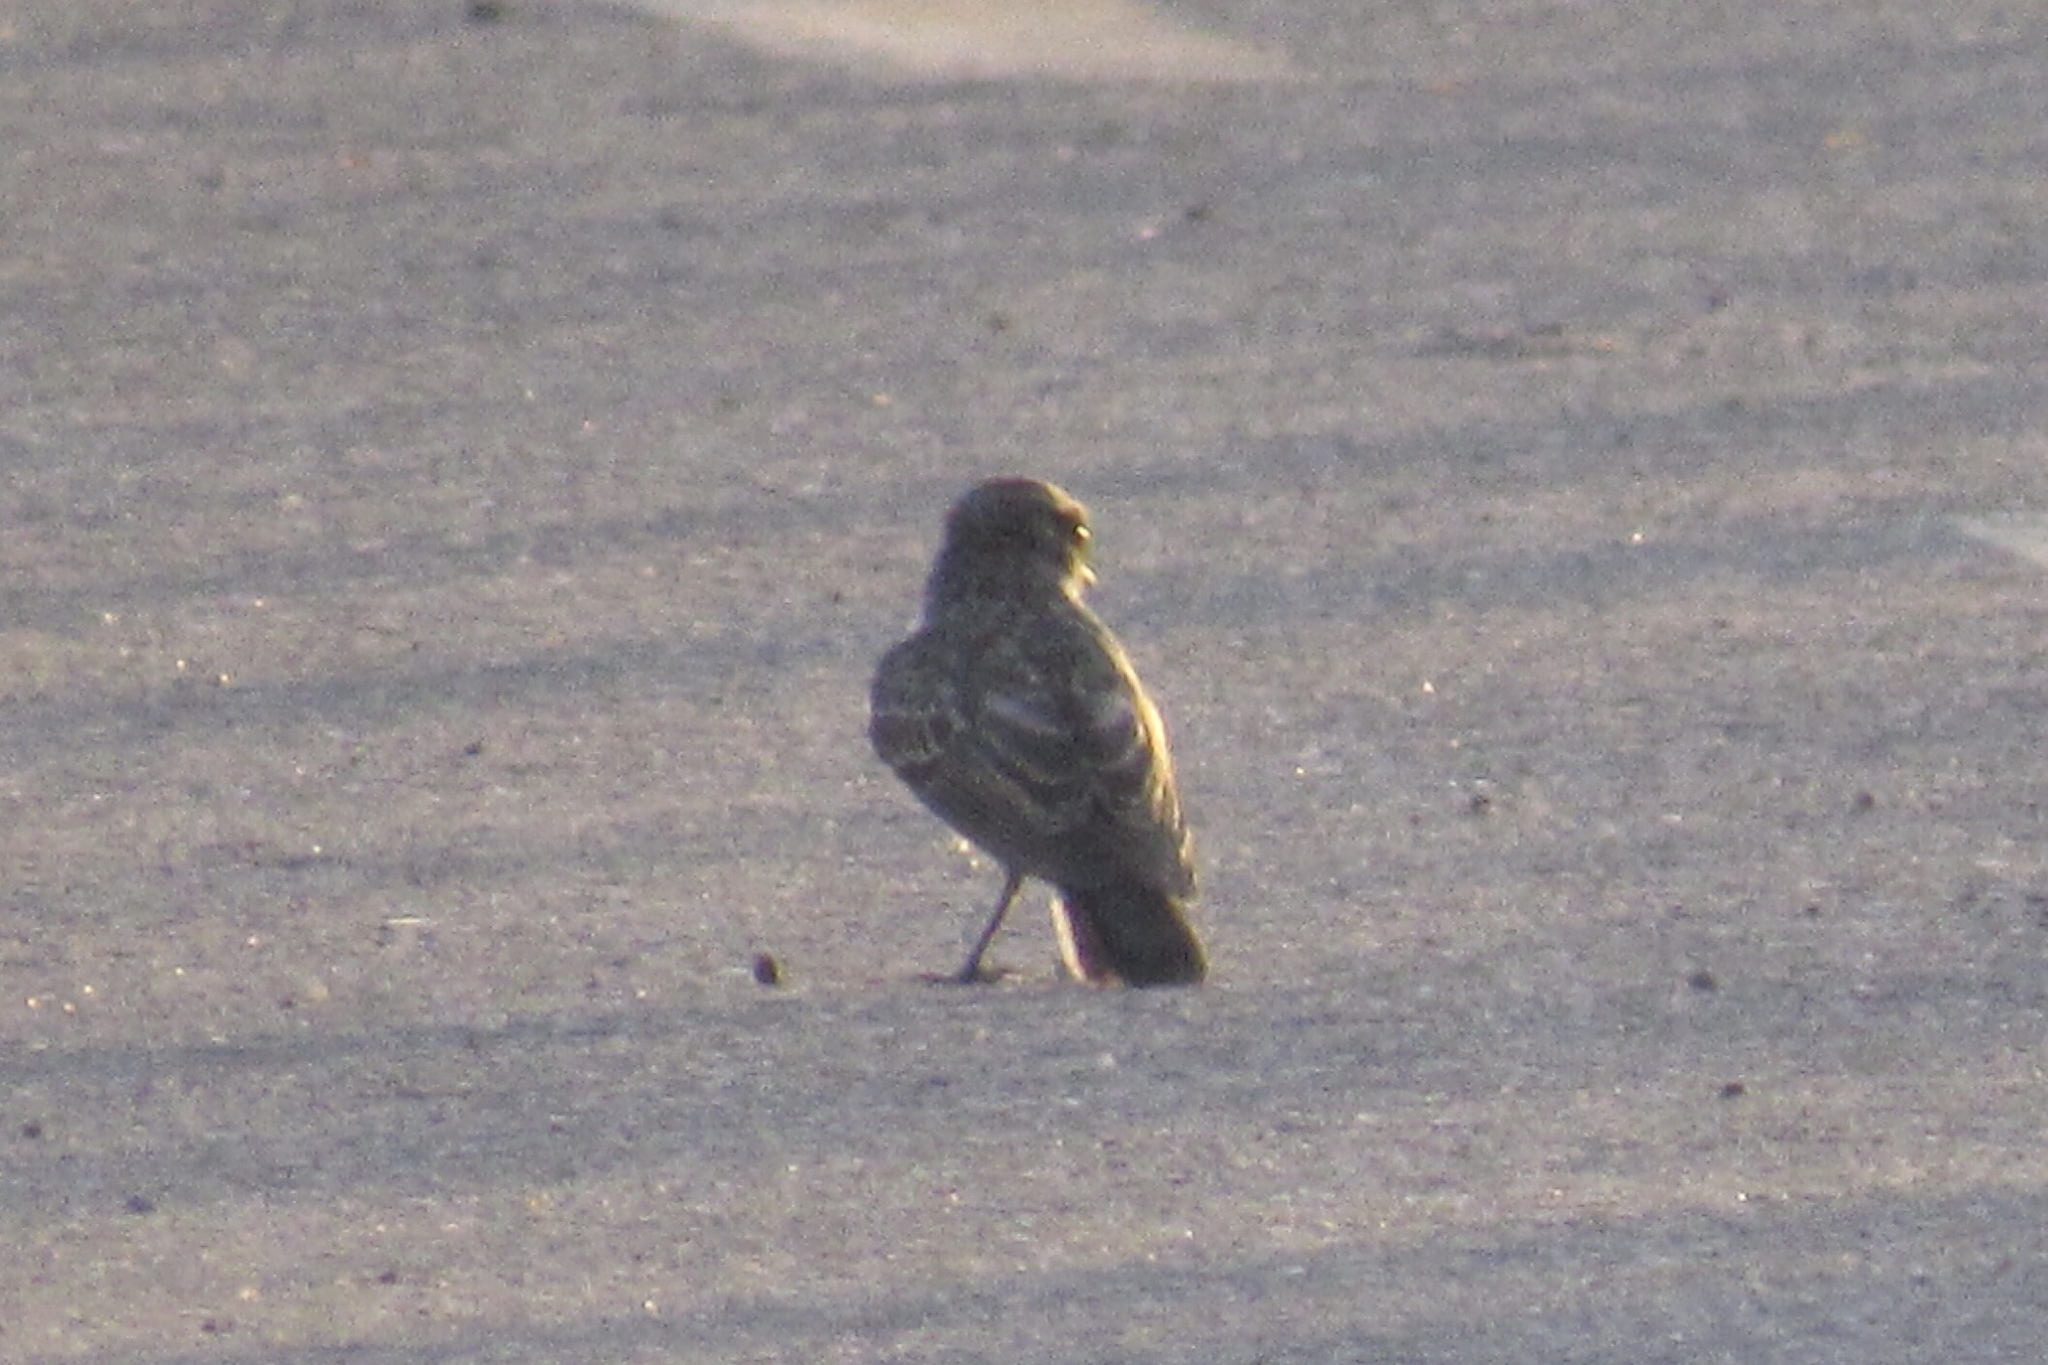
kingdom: Animalia
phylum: Chordata
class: Aves
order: Passeriformes
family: Tyrannidae
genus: Pyrocephalus
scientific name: Pyrocephalus rubinus
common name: Vermilion flycatcher
